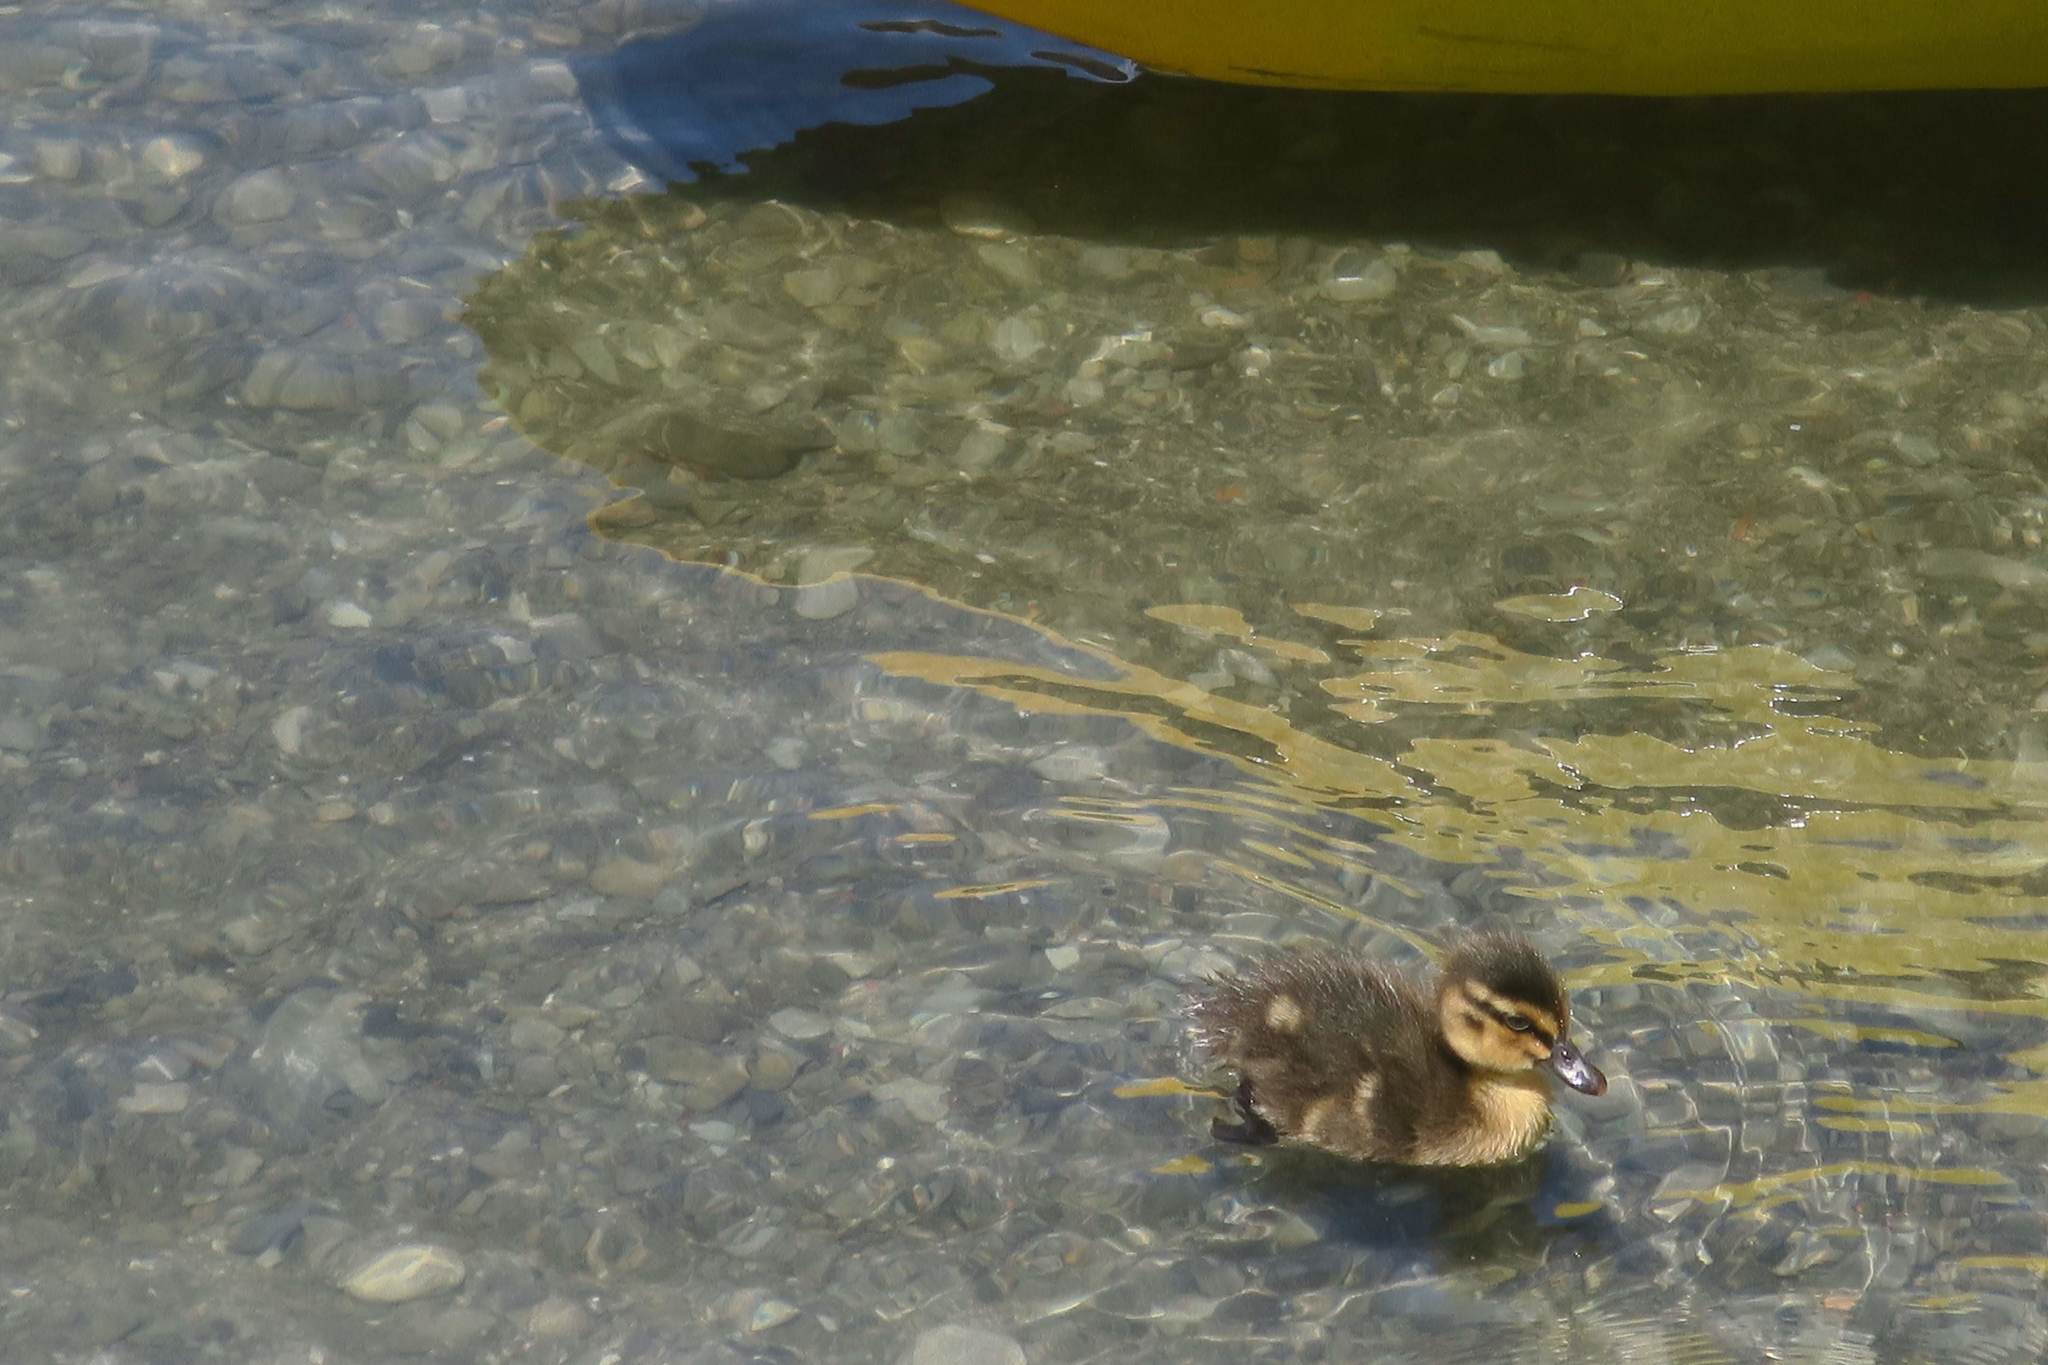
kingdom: Animalia
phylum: Chordata
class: Aves
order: Anseriformes
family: Anatidae
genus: Anas
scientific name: Anas
